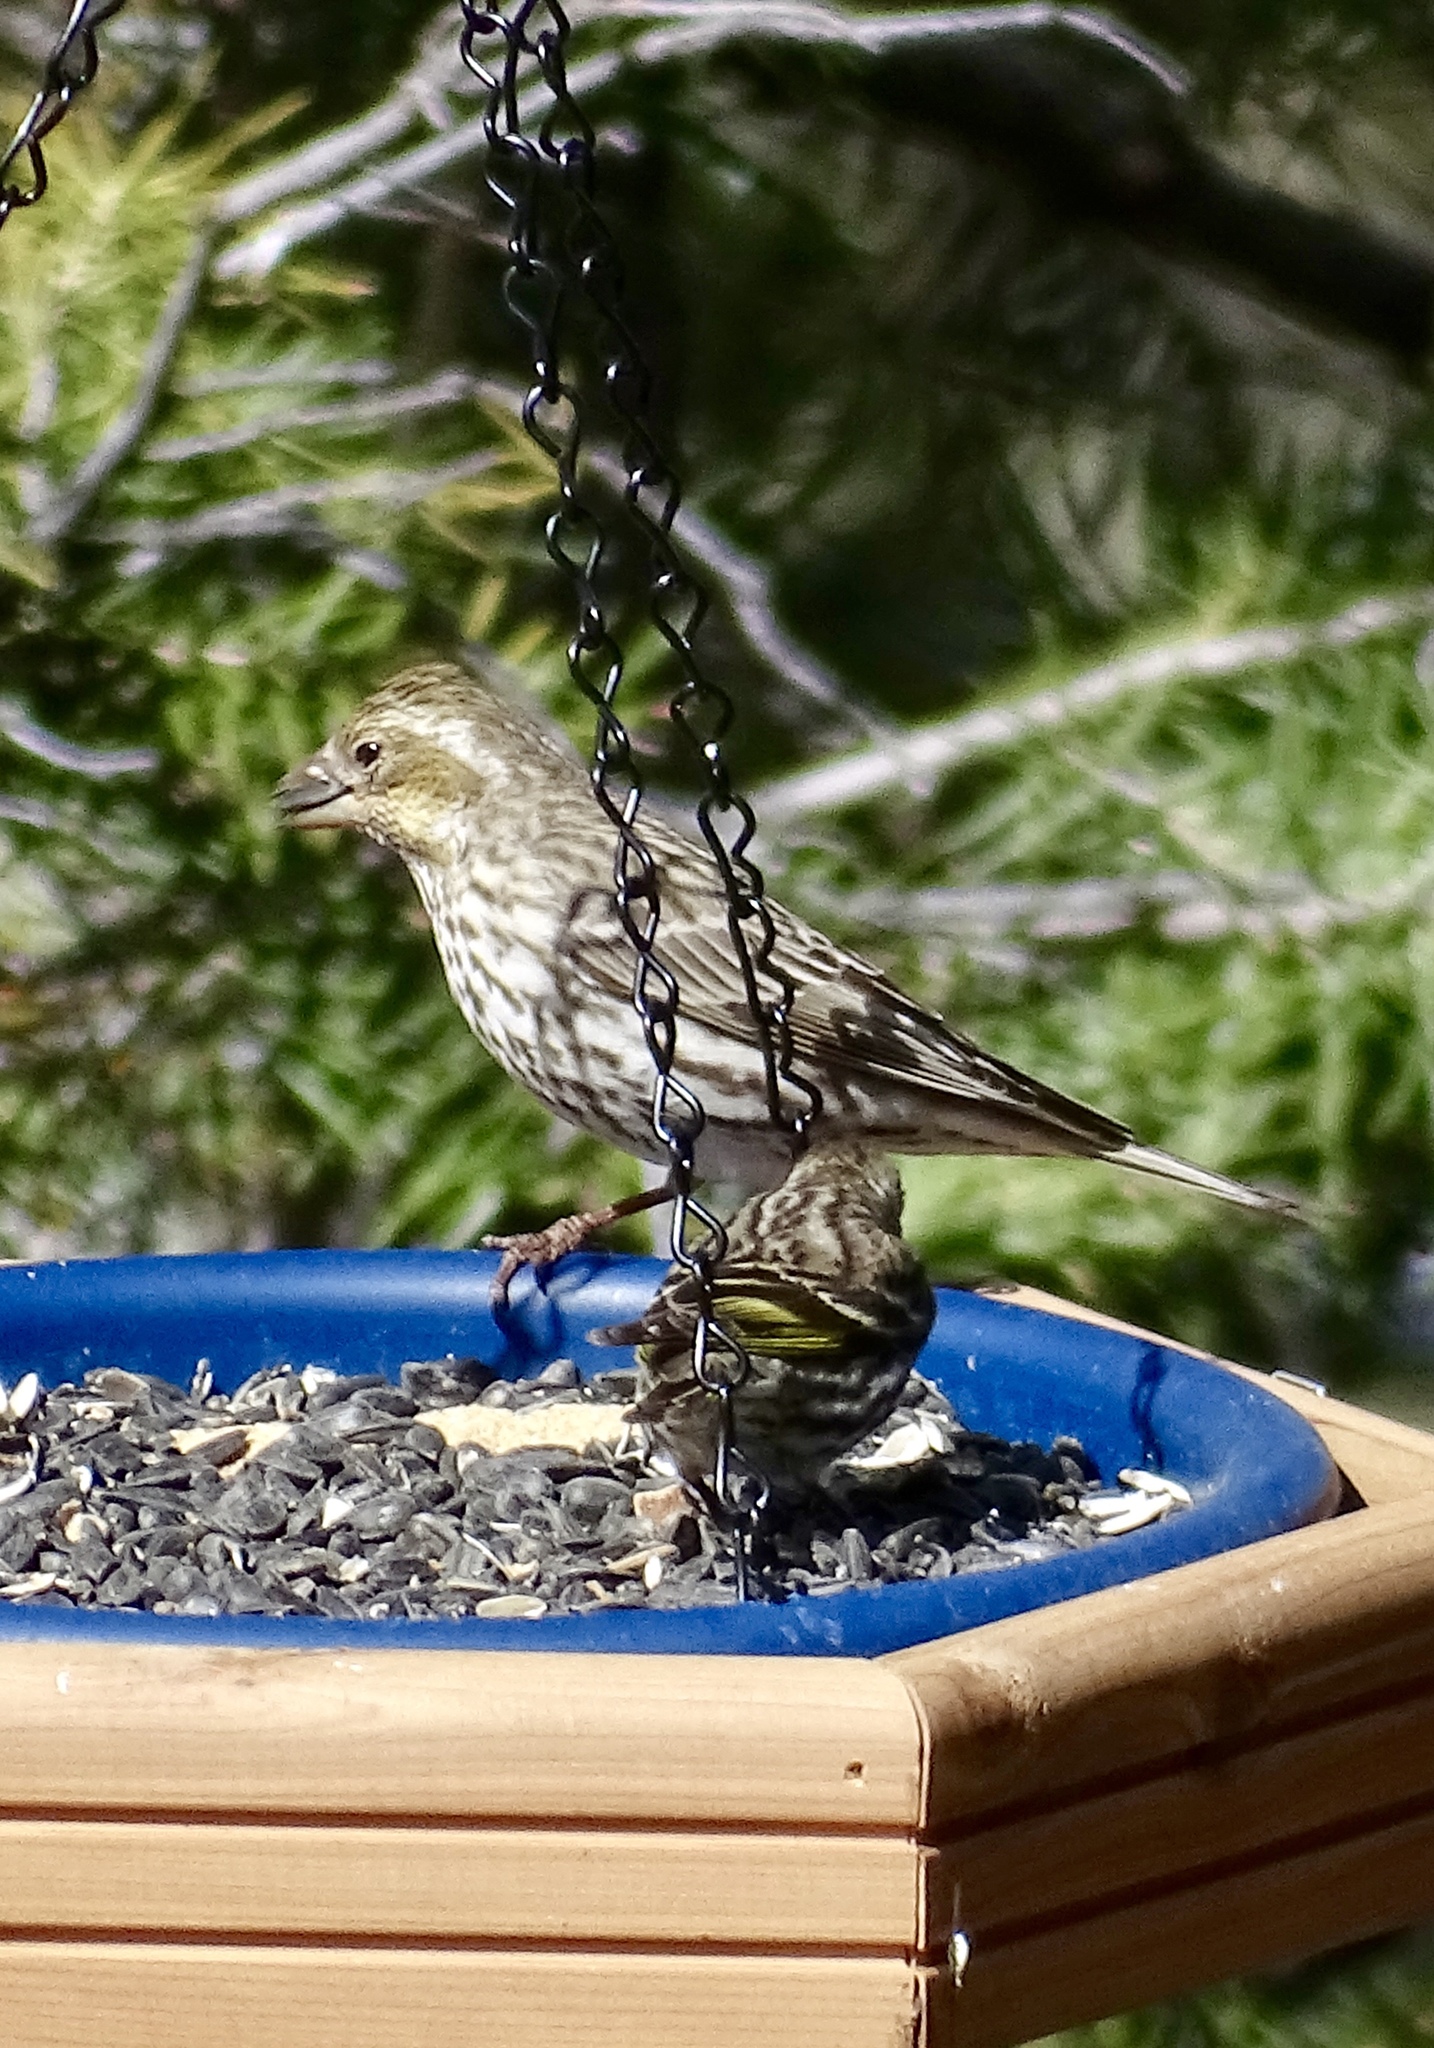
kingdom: Animalia
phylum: Chordata
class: Aves
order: Passeriformes
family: Fringillidae
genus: Haemorhous
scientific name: Haemorhous cassinii
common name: Cassin's finch
